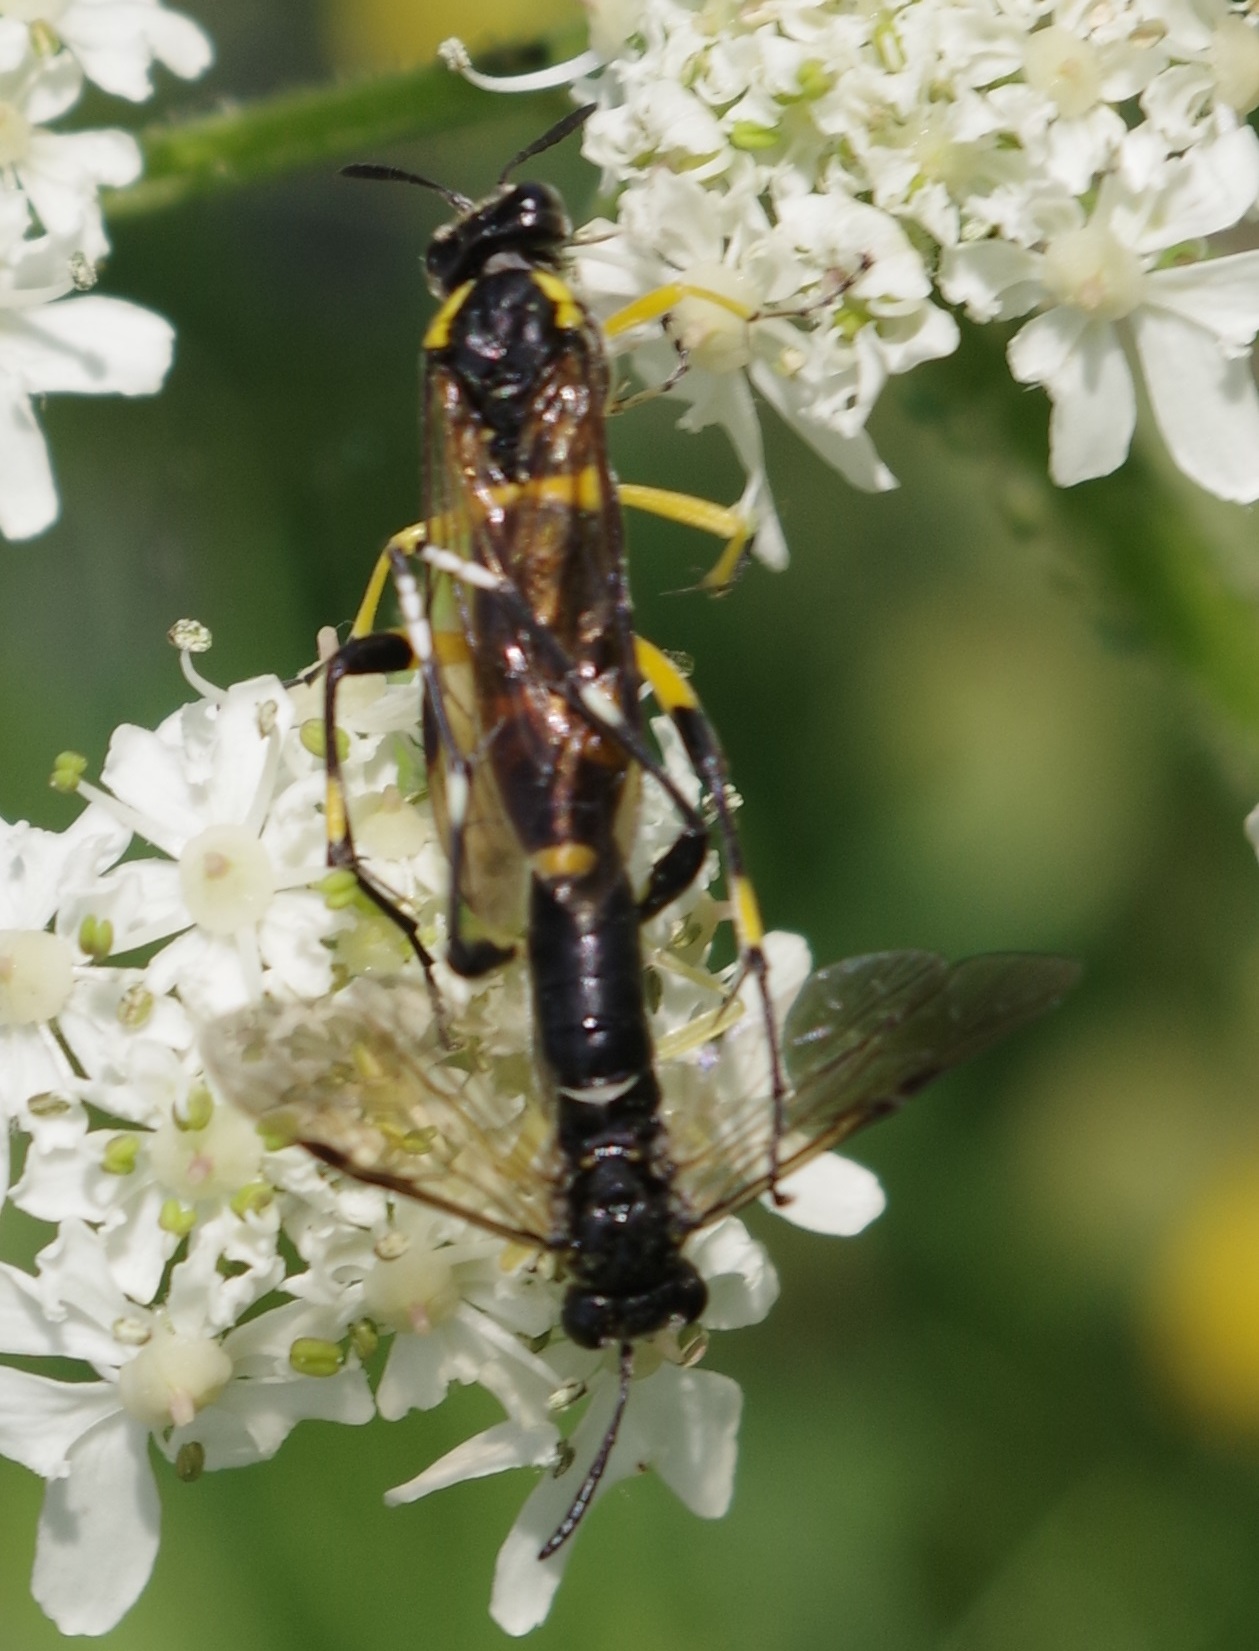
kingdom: Animalia
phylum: Arthropoda
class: Insecta
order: Hymenoptera
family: Tenthredinidae
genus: Macrophya
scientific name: Macrophya montana
